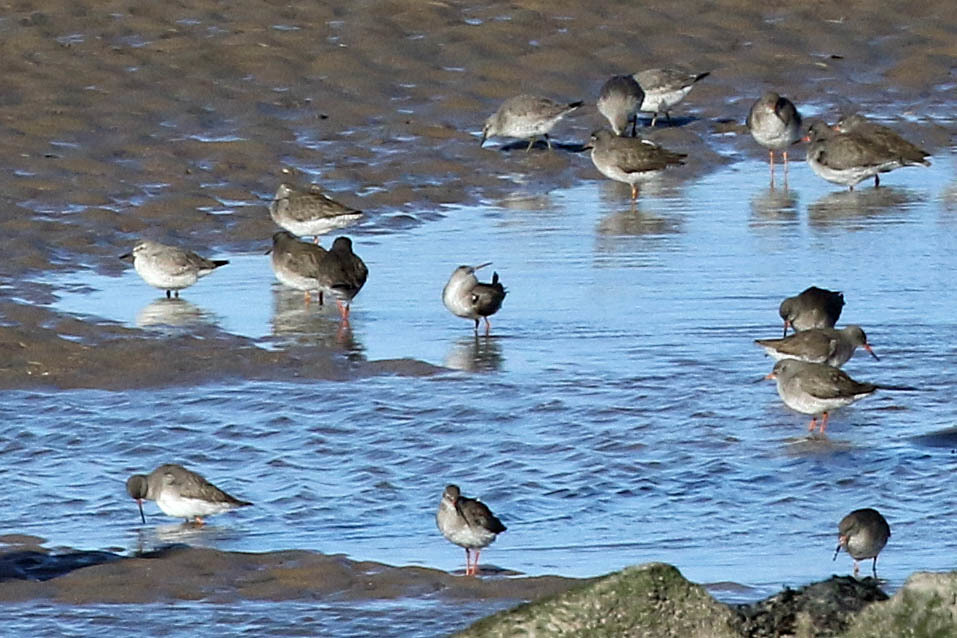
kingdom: Animalia
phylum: Chordata
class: Aves
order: Charadriiformes
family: Scolopacidae
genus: Calidris
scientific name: Calidris canutus
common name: Red knot
